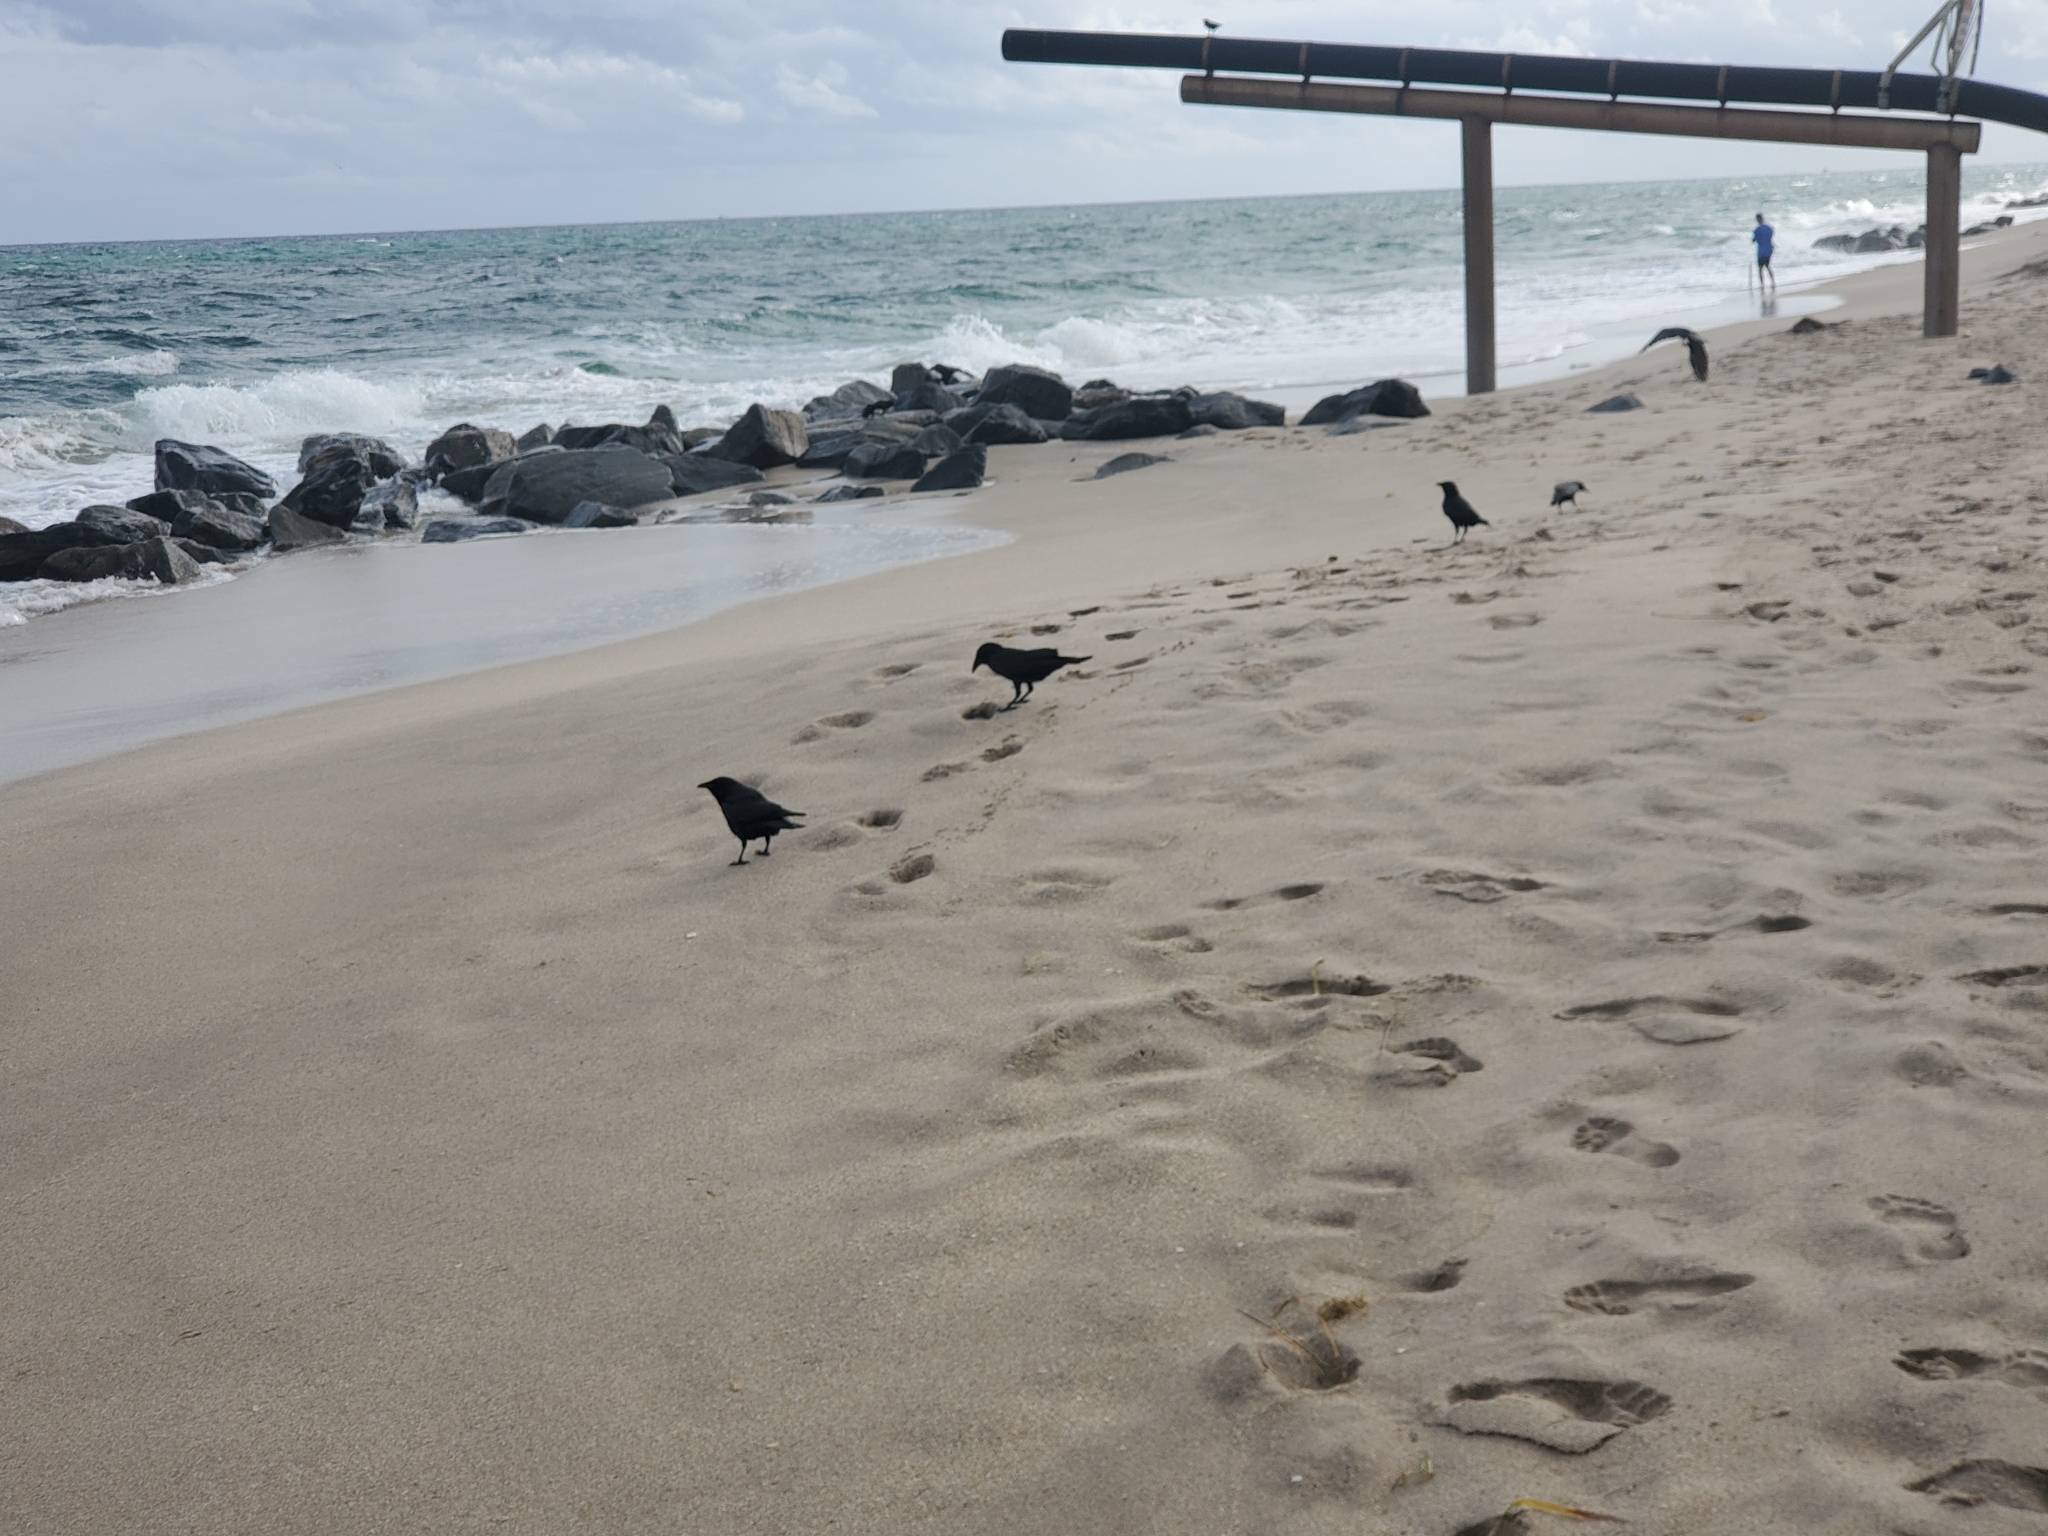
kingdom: Animalia
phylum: Chordata
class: Aves
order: Passeriformes
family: Corvidae
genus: Corvus
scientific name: Corvus ossifragus
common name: Fish crow
